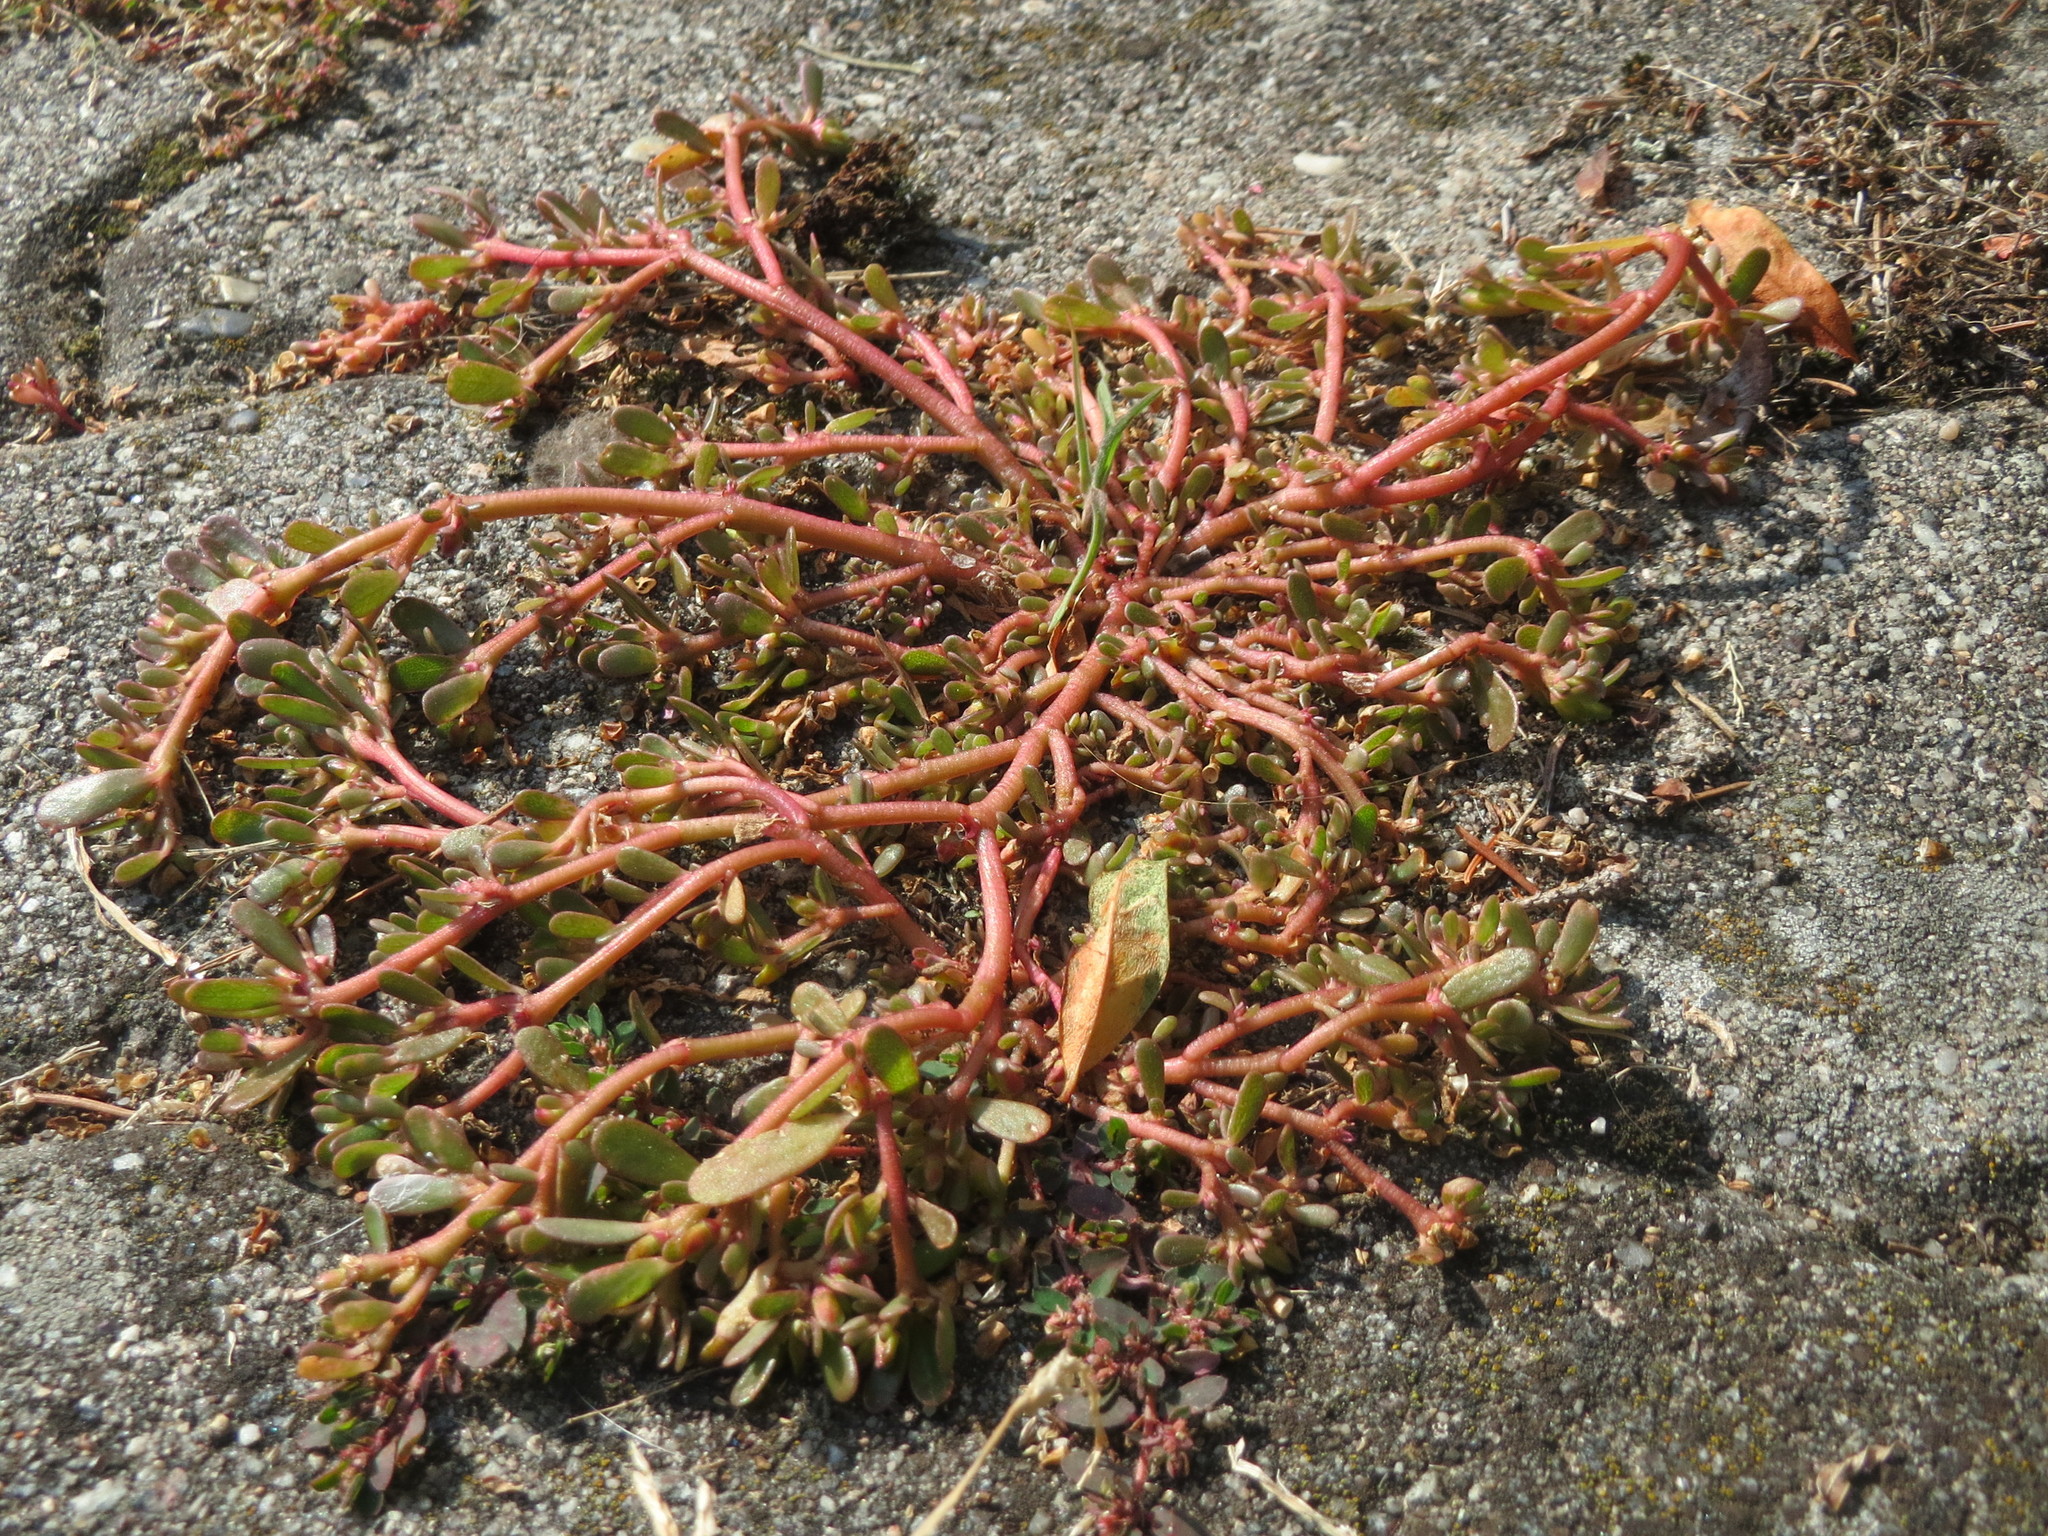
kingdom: Plantae
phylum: Tracheophyta
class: Magnoliopsida
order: Caryophyllales
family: Portulacaceae
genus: Portulaca
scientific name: Portulaca oleracea
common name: Common purslane
